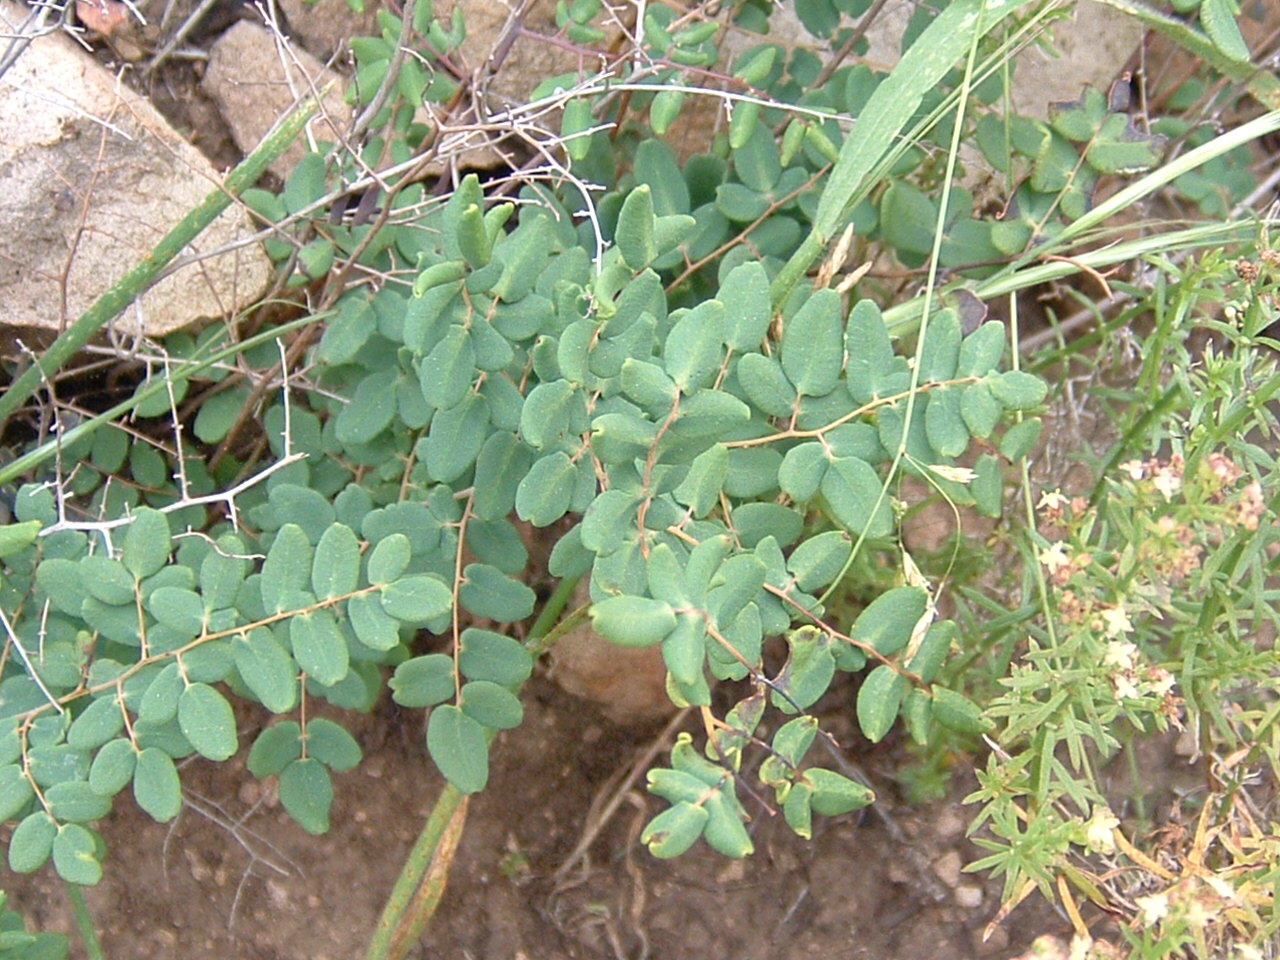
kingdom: Plantae
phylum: Tracheophyta
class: Polypodiopsida
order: Polypodiales
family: Pteridaceae
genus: Pellaea
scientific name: Pellaea andromedifolia
